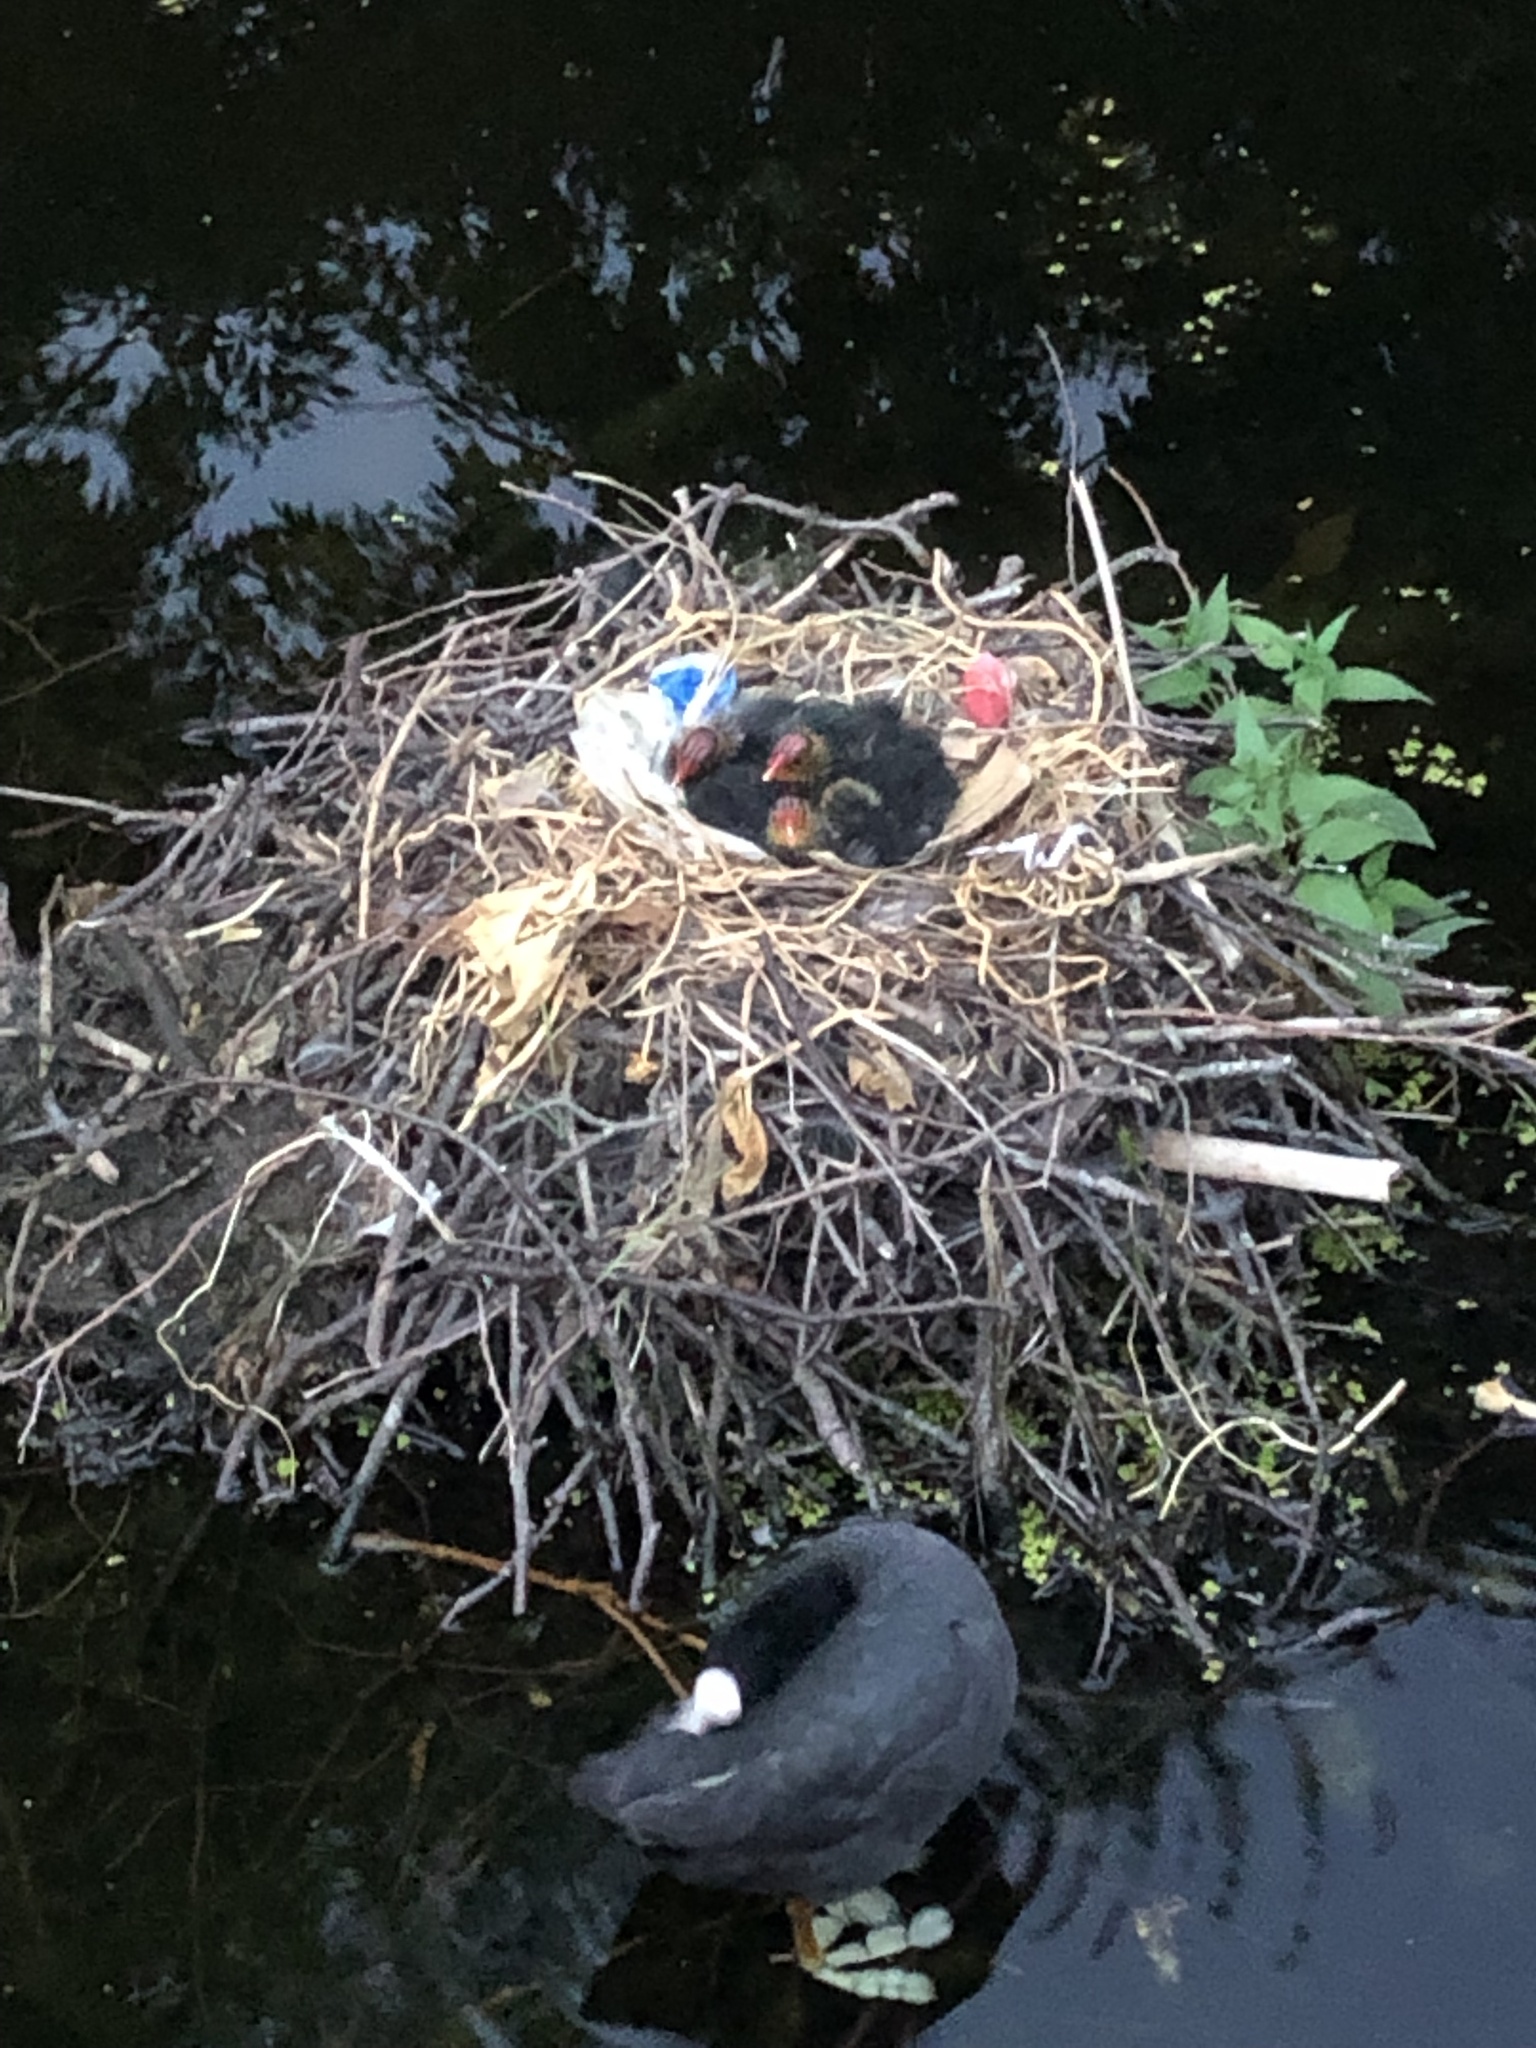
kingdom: Animalia
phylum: Chordata
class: Aves
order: Gruiformes
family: Rallidae
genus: Fulica
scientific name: Fulica atra
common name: Eurasian coot
